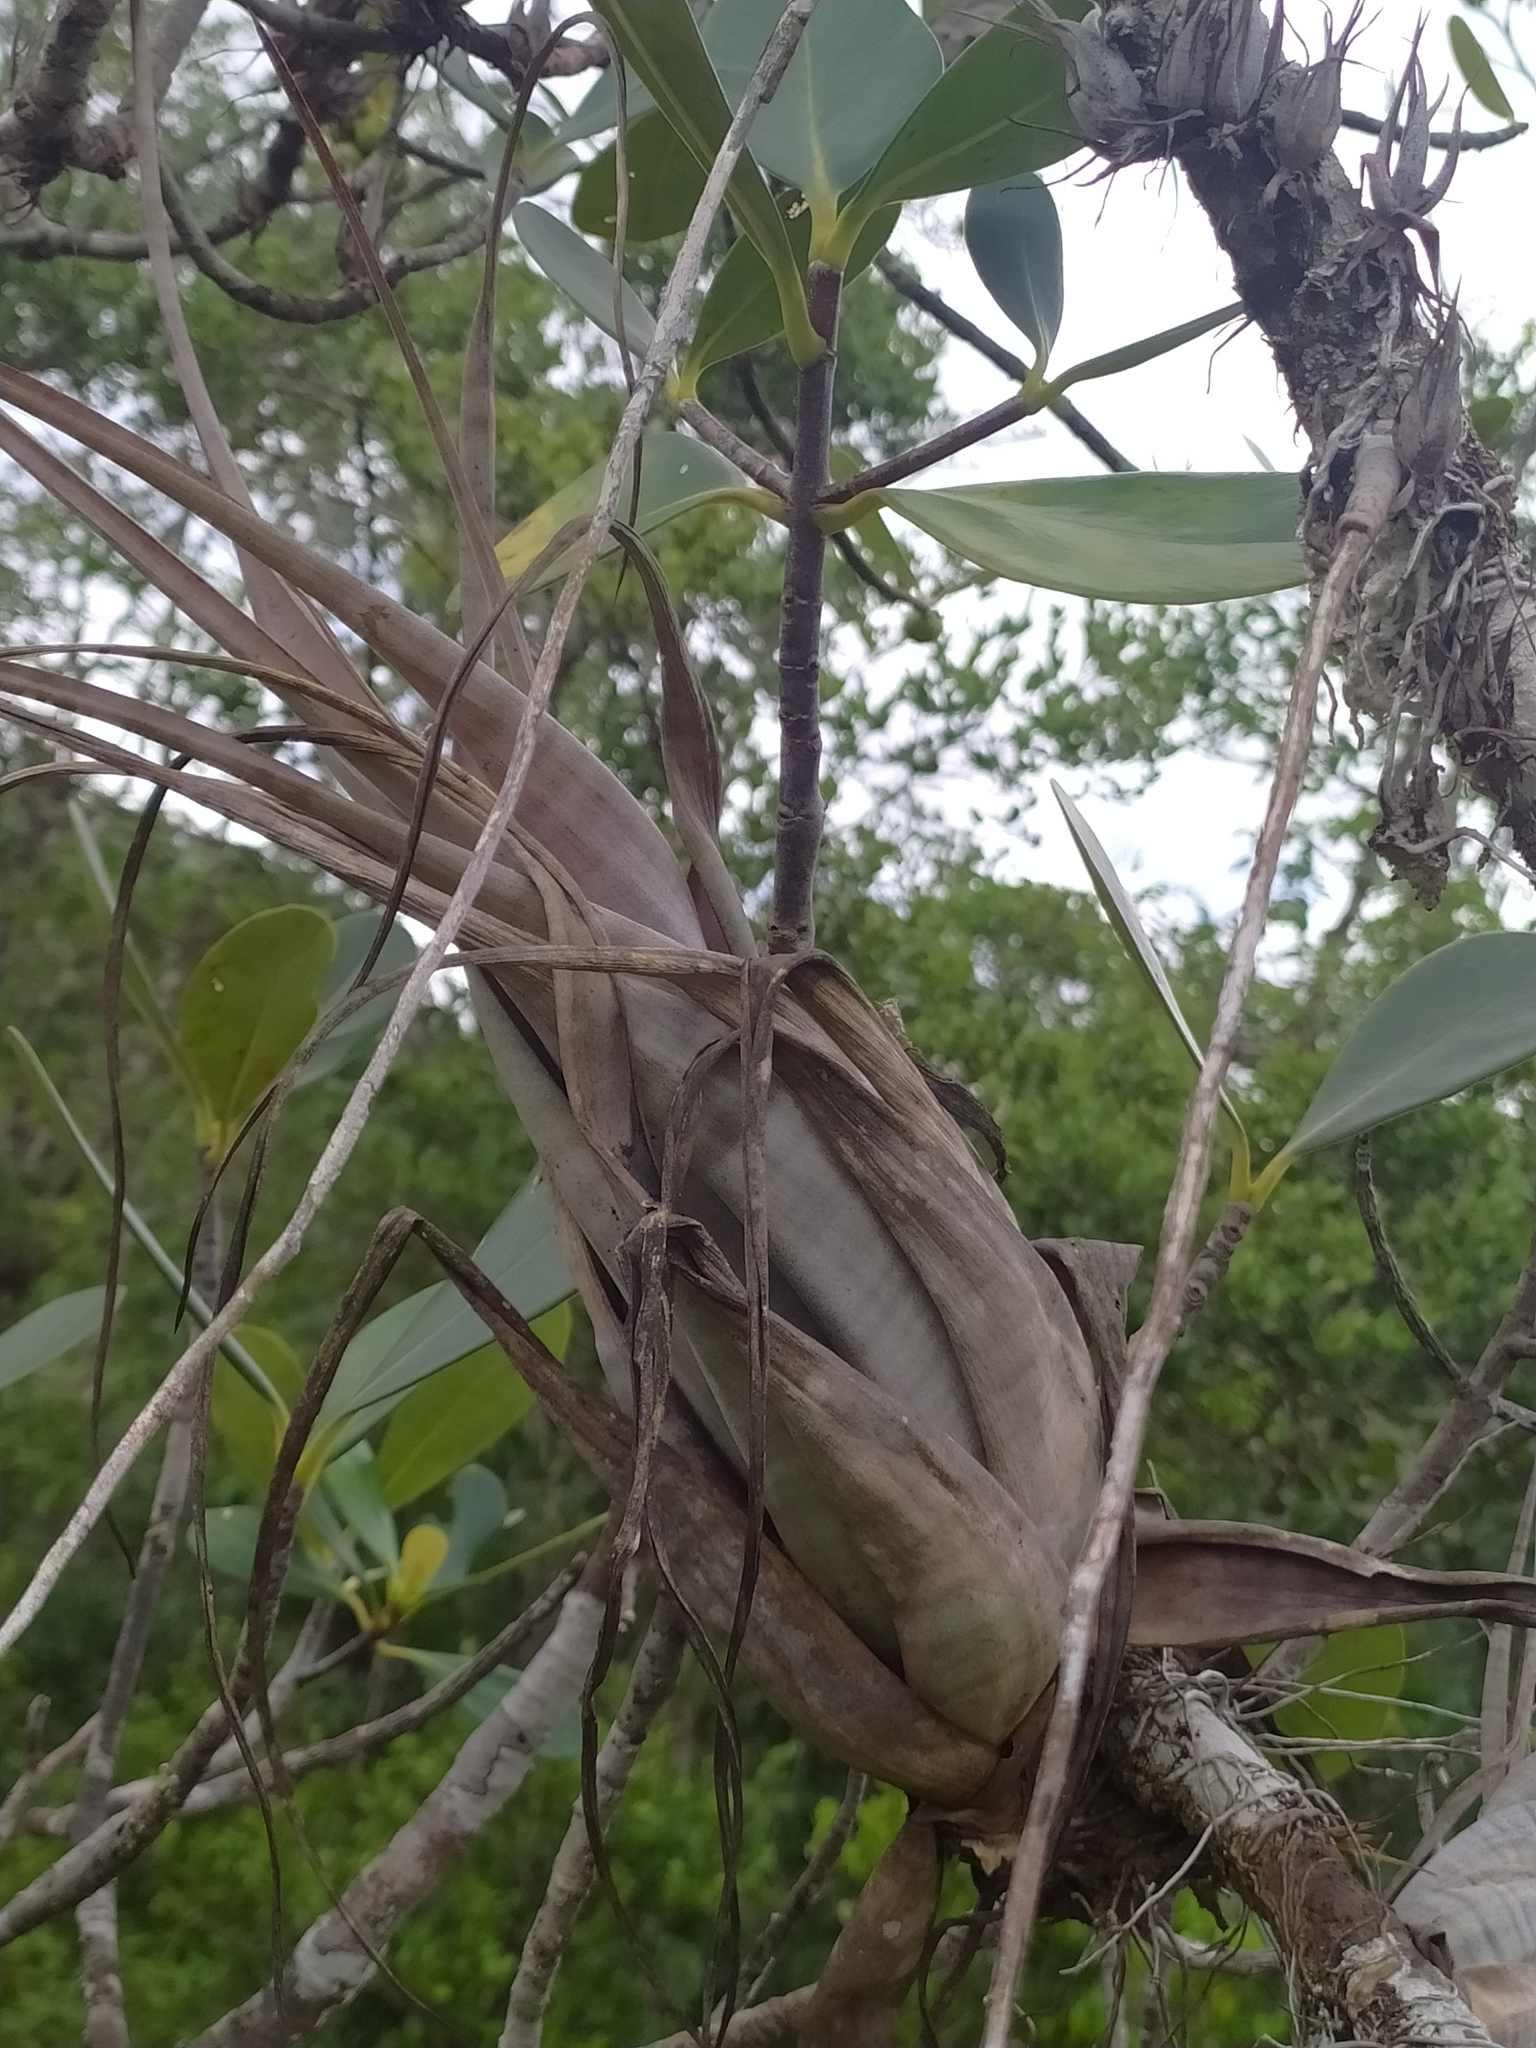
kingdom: Plantae
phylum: Tracheophyta
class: Liliopsida
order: Poales
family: Bromeliaceae
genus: Tillandsia
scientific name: Tillandsia flexuosa
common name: Banded airplant
